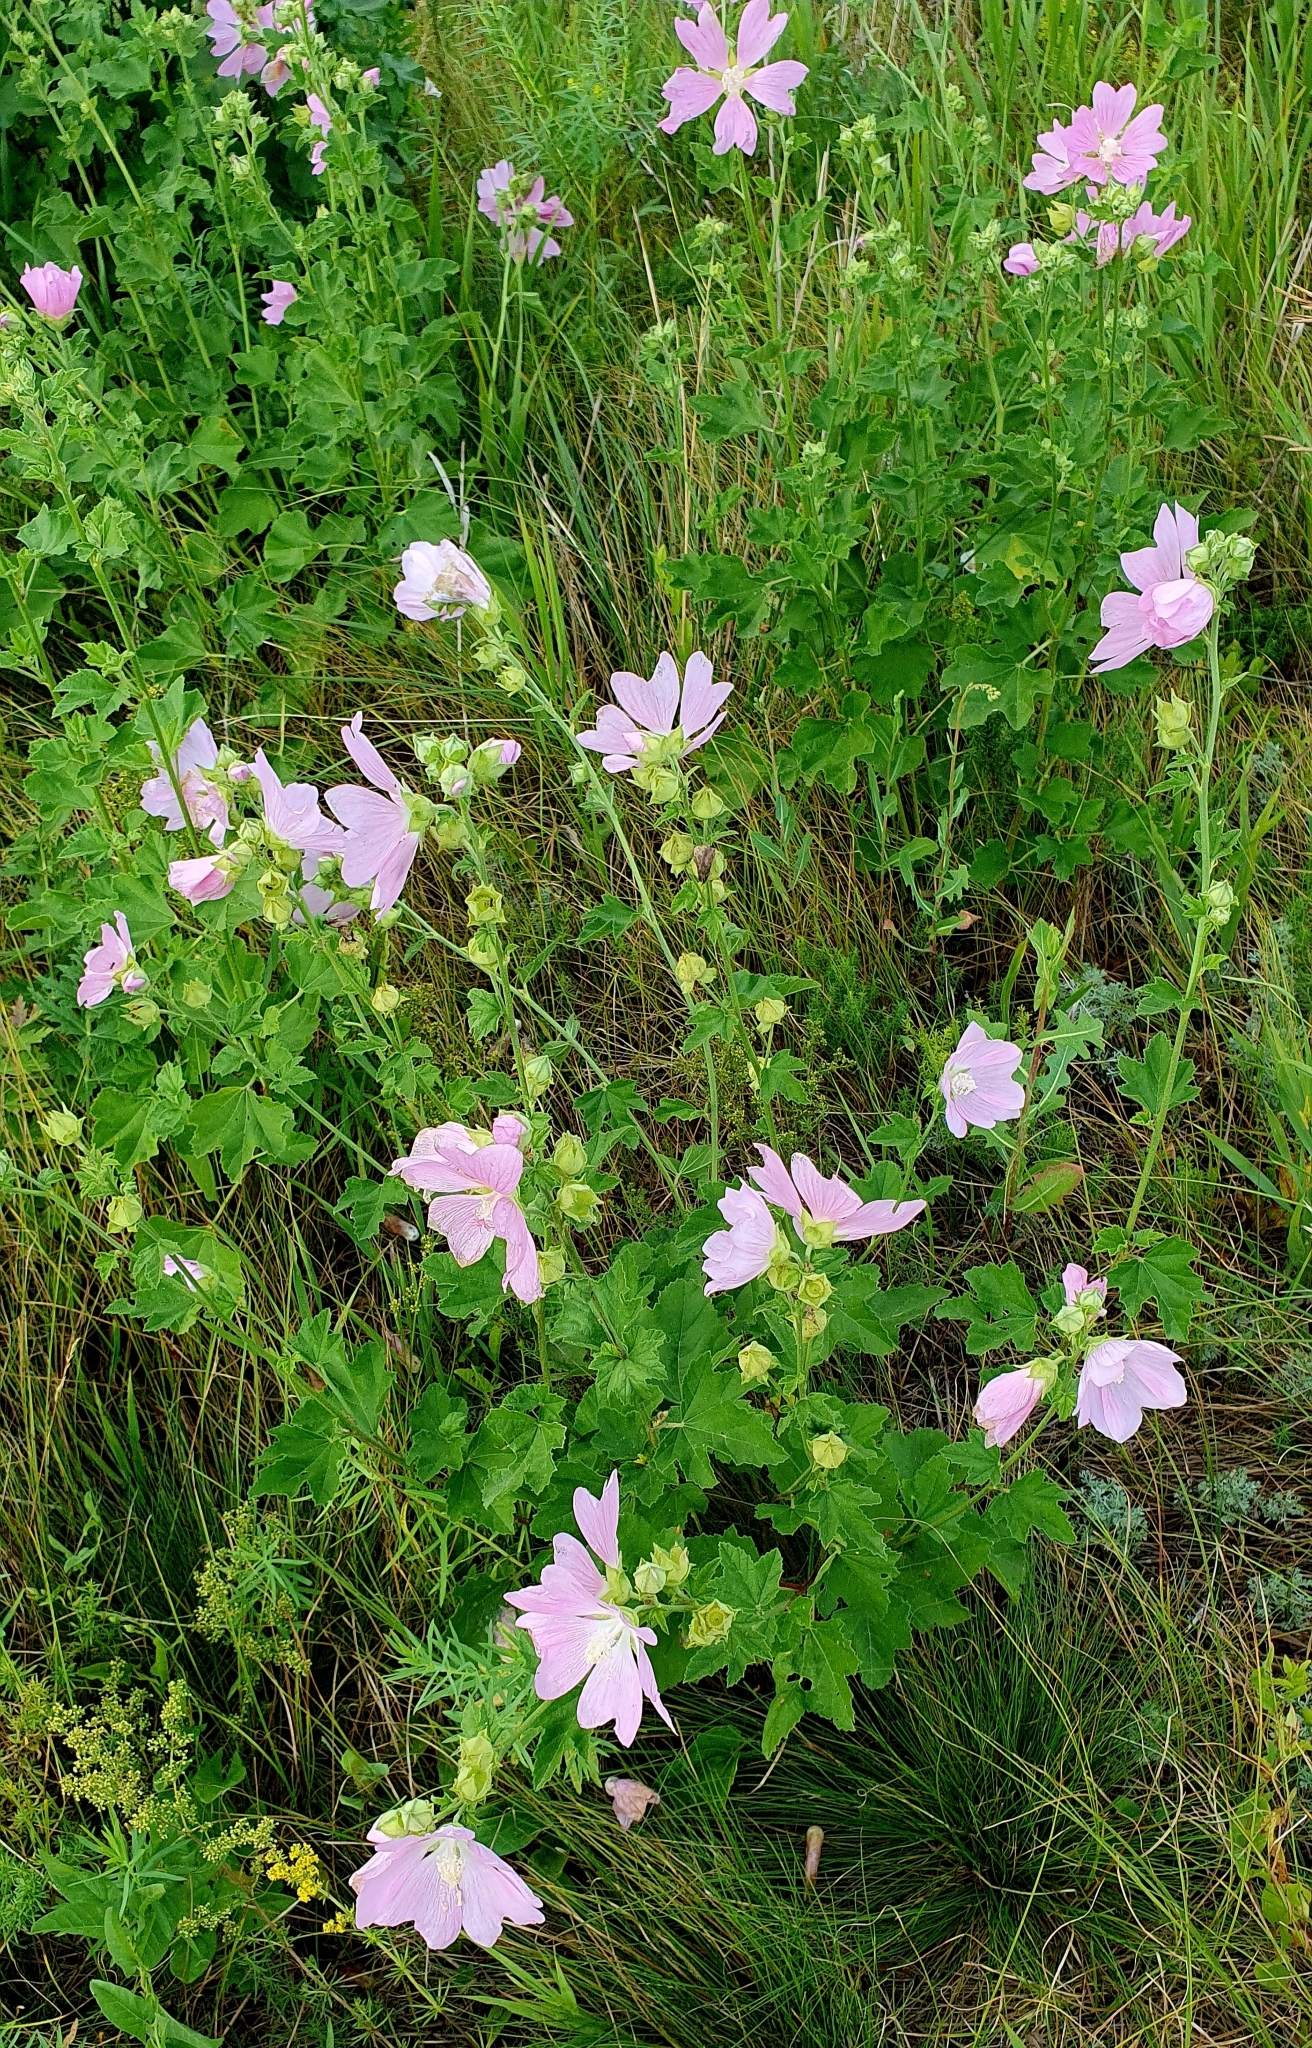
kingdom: Plantae
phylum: Tracheophyta
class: Magnoliopsida
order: Malvales
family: Malvaceae
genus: Malva
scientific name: Malva thuringiaca
